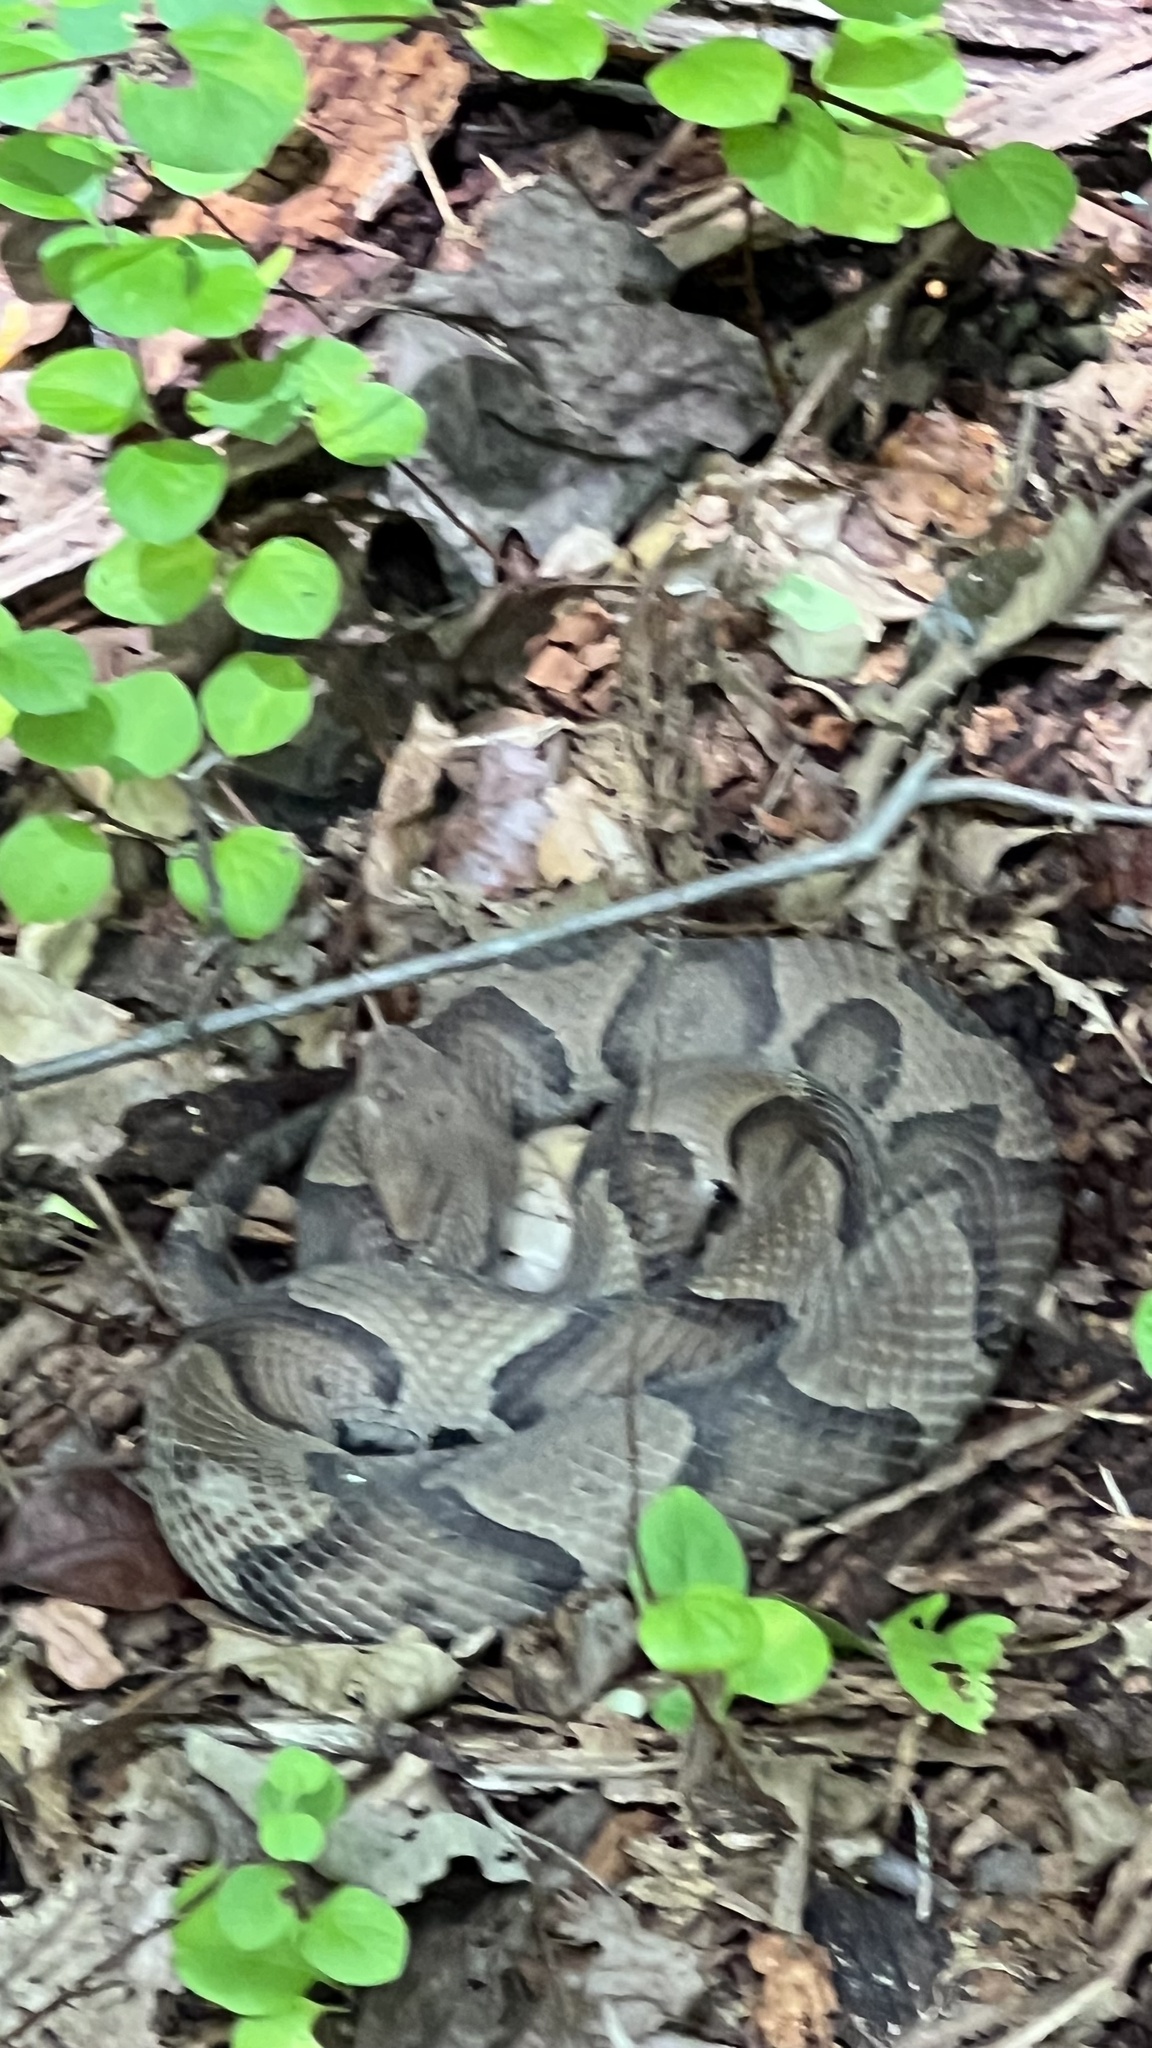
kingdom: Animalia
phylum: Chordata
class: Squamata
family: Viperidae
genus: Agkistrodon
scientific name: Agkistrodon contortrix
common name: Northern copperhead
